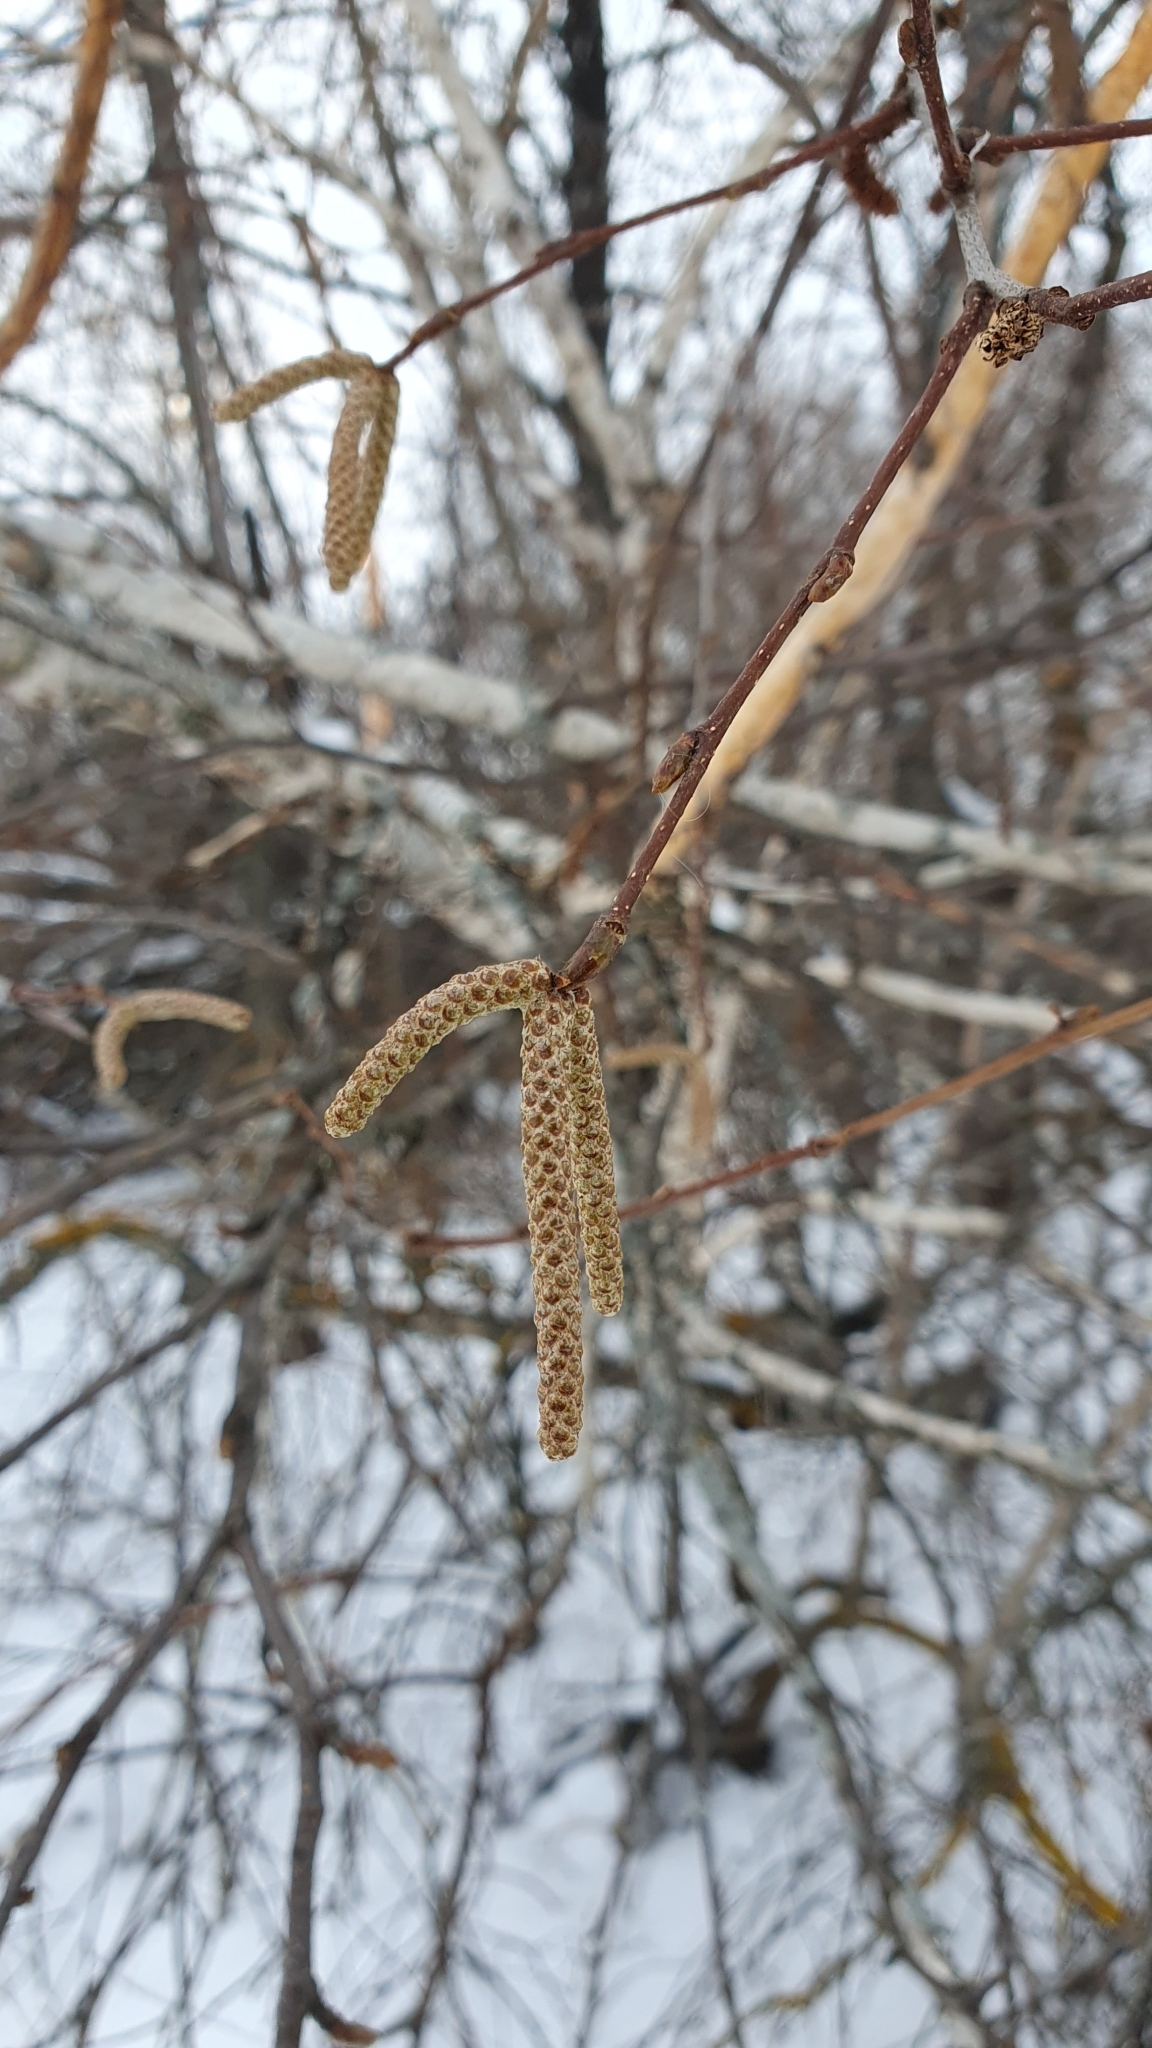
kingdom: Plantae
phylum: Tracheophyta
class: Magnoliopsida
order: Fagales
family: Betulaceae
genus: Betula
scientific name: Betula pendula
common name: Silver birch
